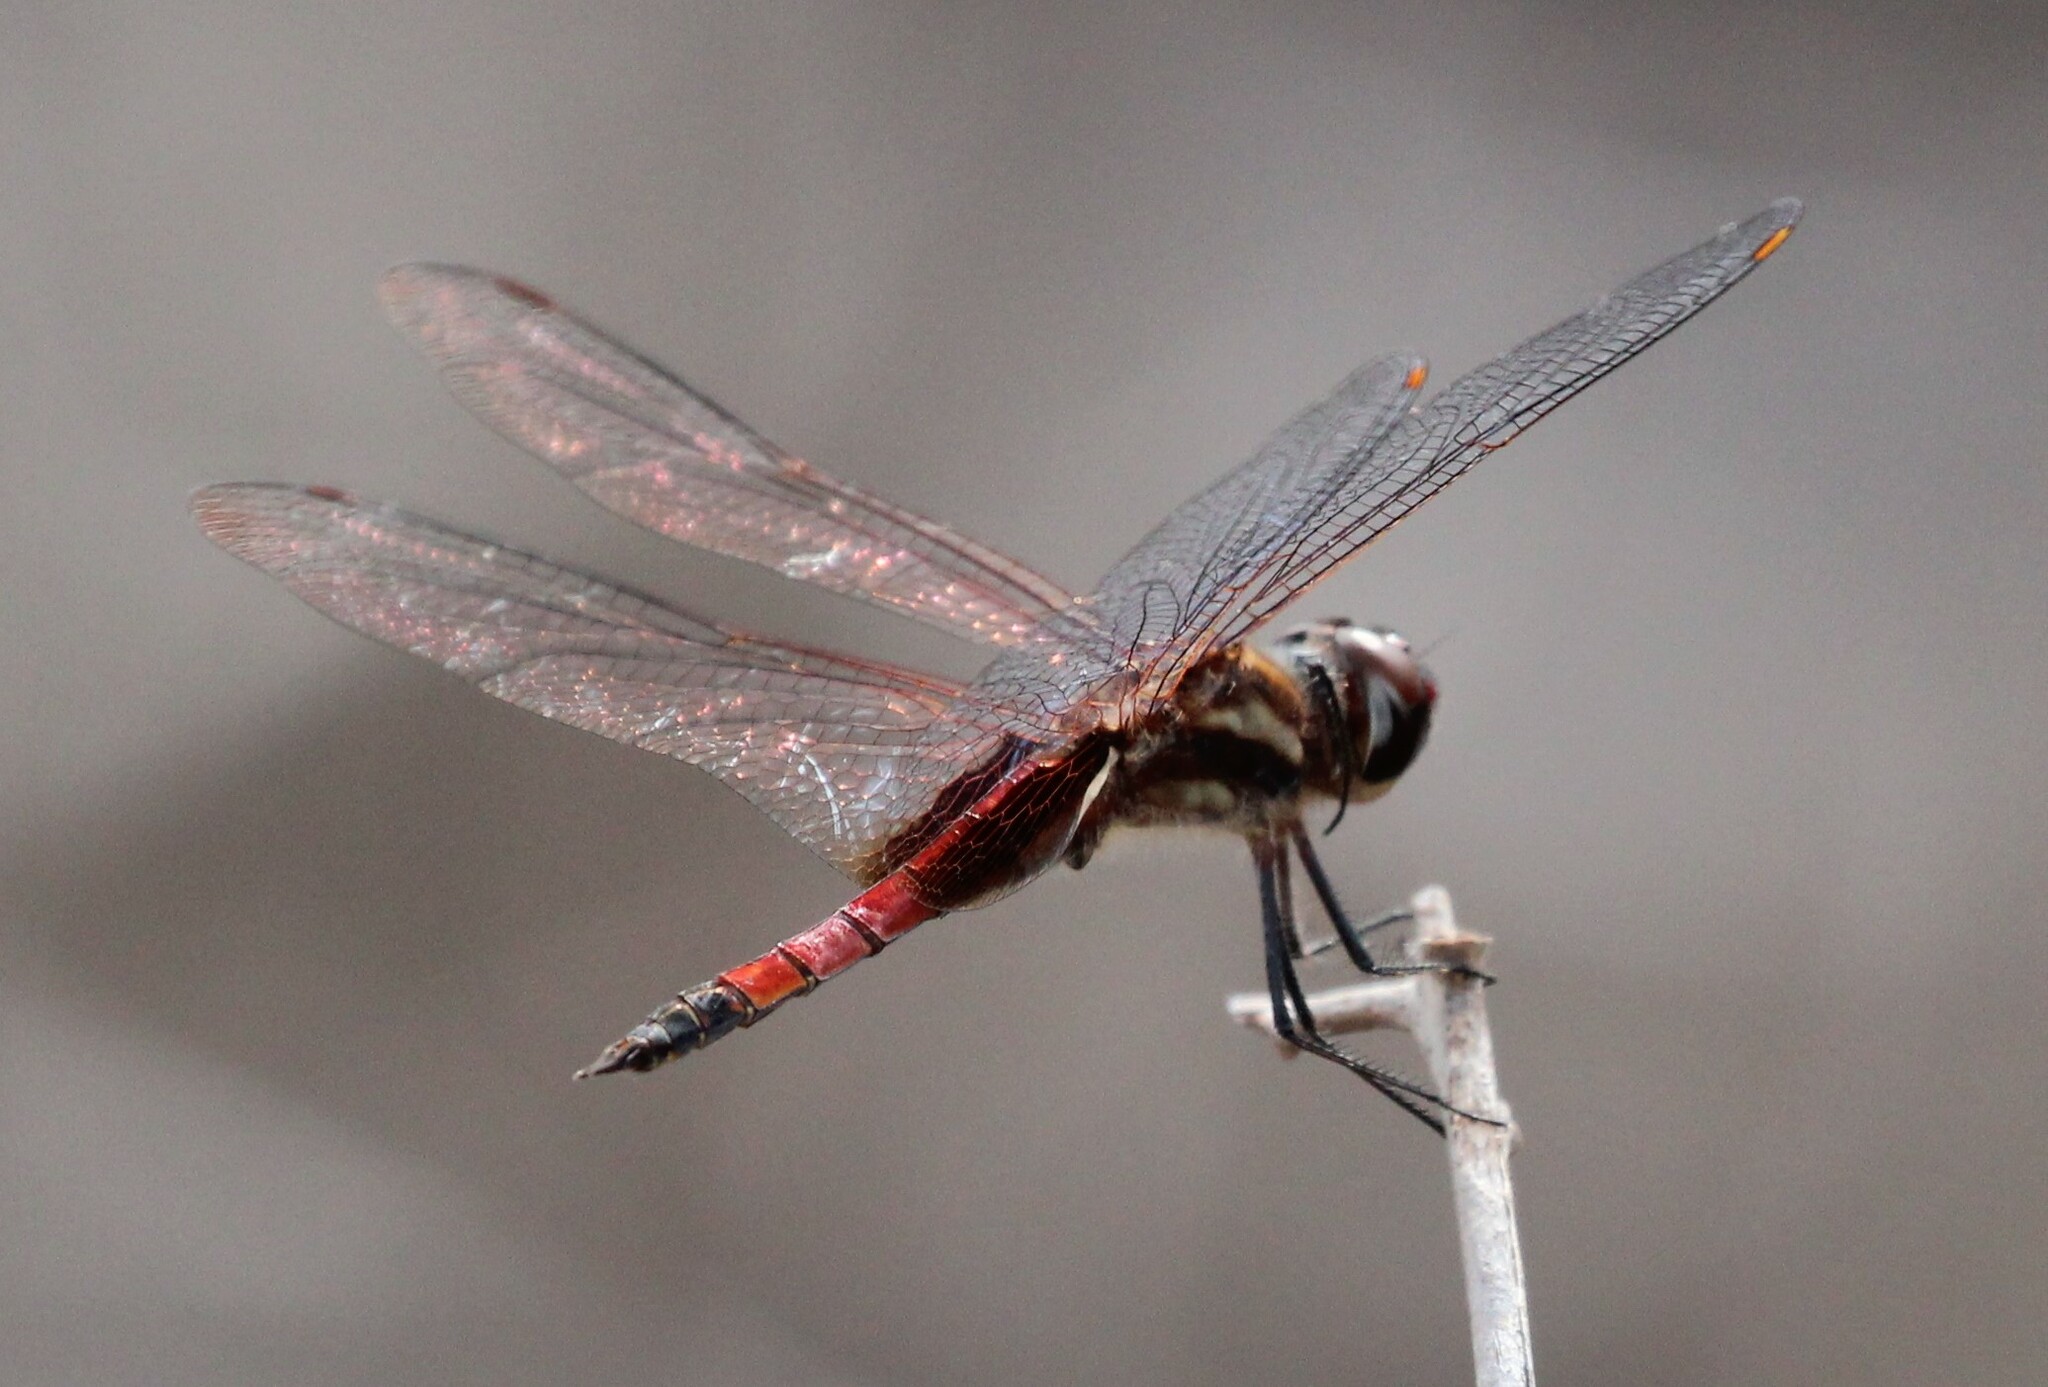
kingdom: Animalia
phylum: Arthropoda
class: Insecta
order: Odonata
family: Libellulidae
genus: Tramea
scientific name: Tramea darwini
